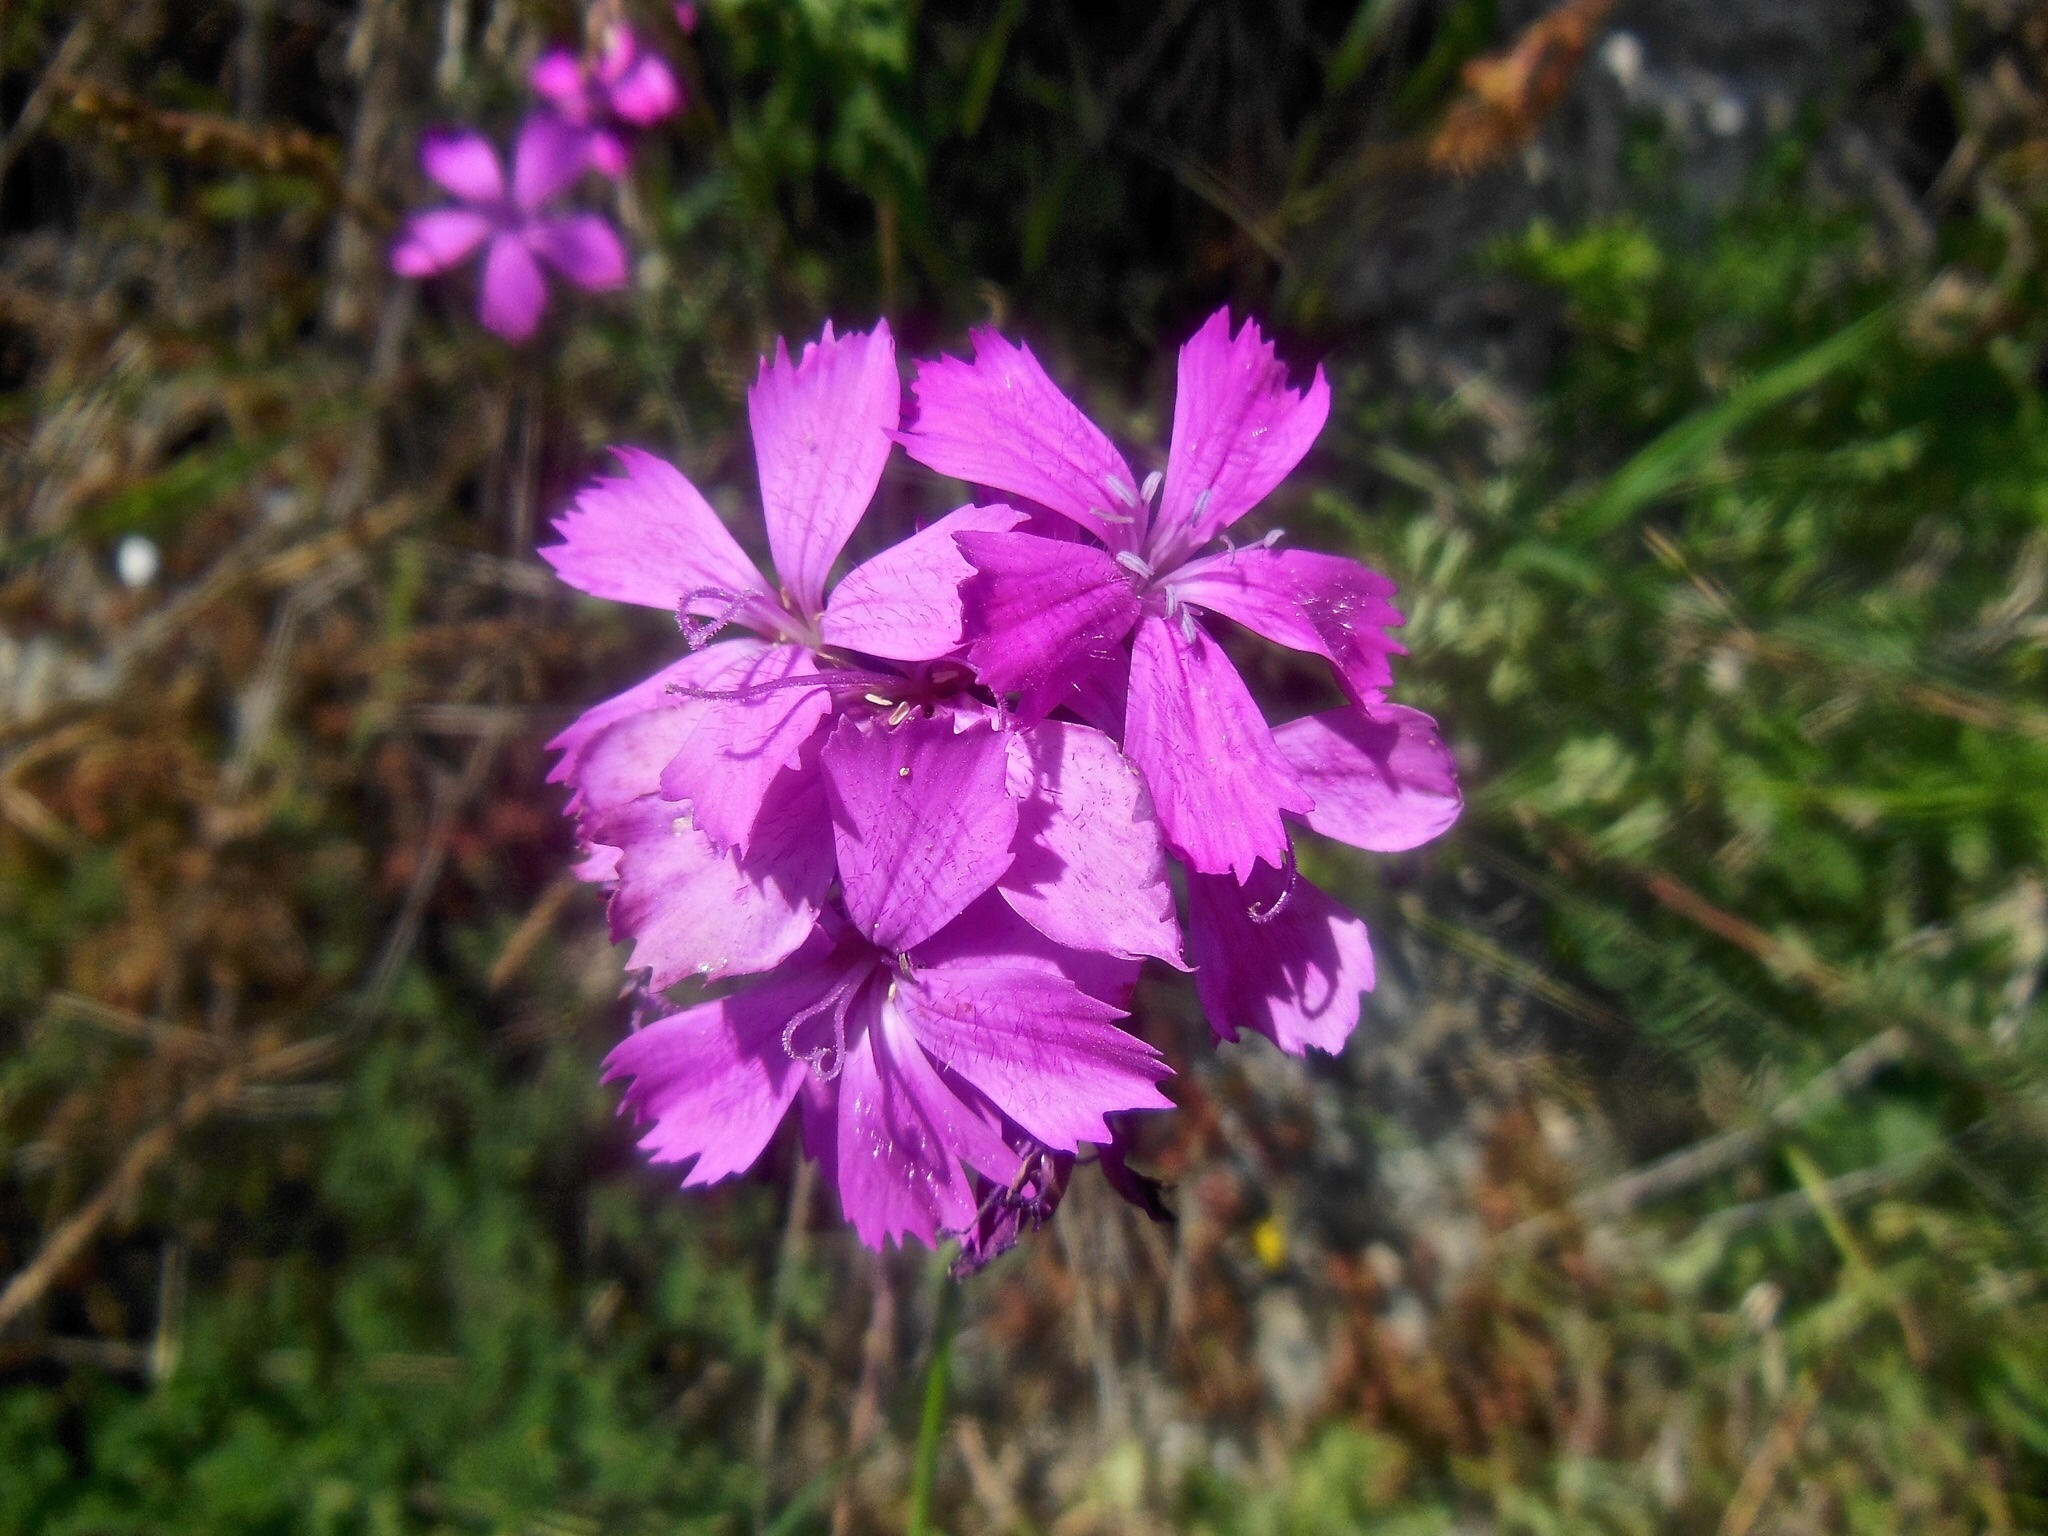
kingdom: Plantae
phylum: Tracheophyta
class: Magnoliopsida
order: Caryophyllales
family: Caryophyllaceae
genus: Dianthus
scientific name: Dianthus carthusianorum
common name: Carthusian pink
